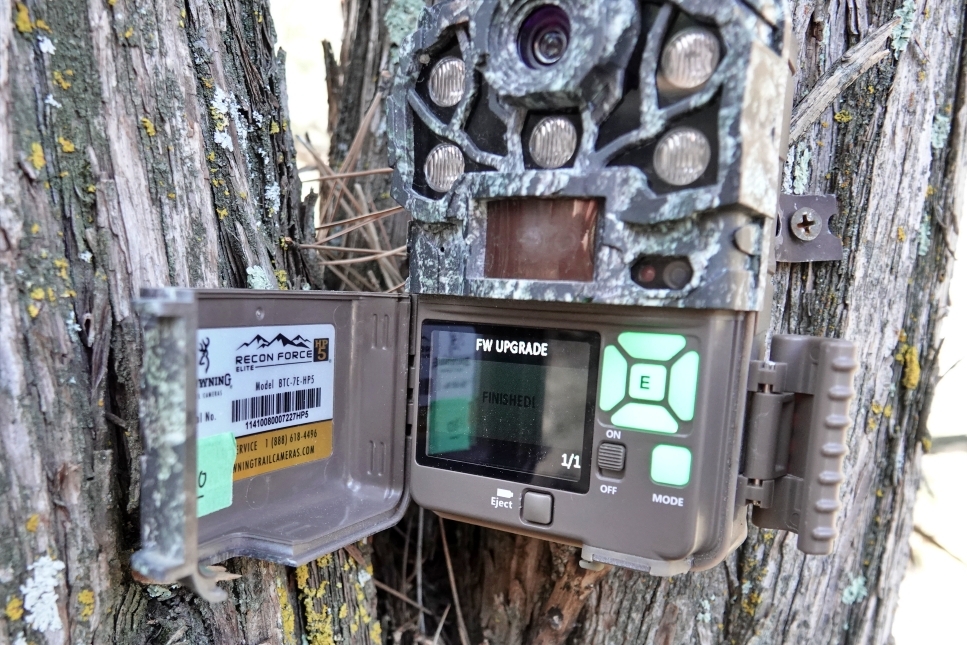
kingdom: Animalia
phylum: Chordata
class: Mammalia
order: Artiodactyla
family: Cervidae
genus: Cervus
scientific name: Cervus elaphus
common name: Red deer
